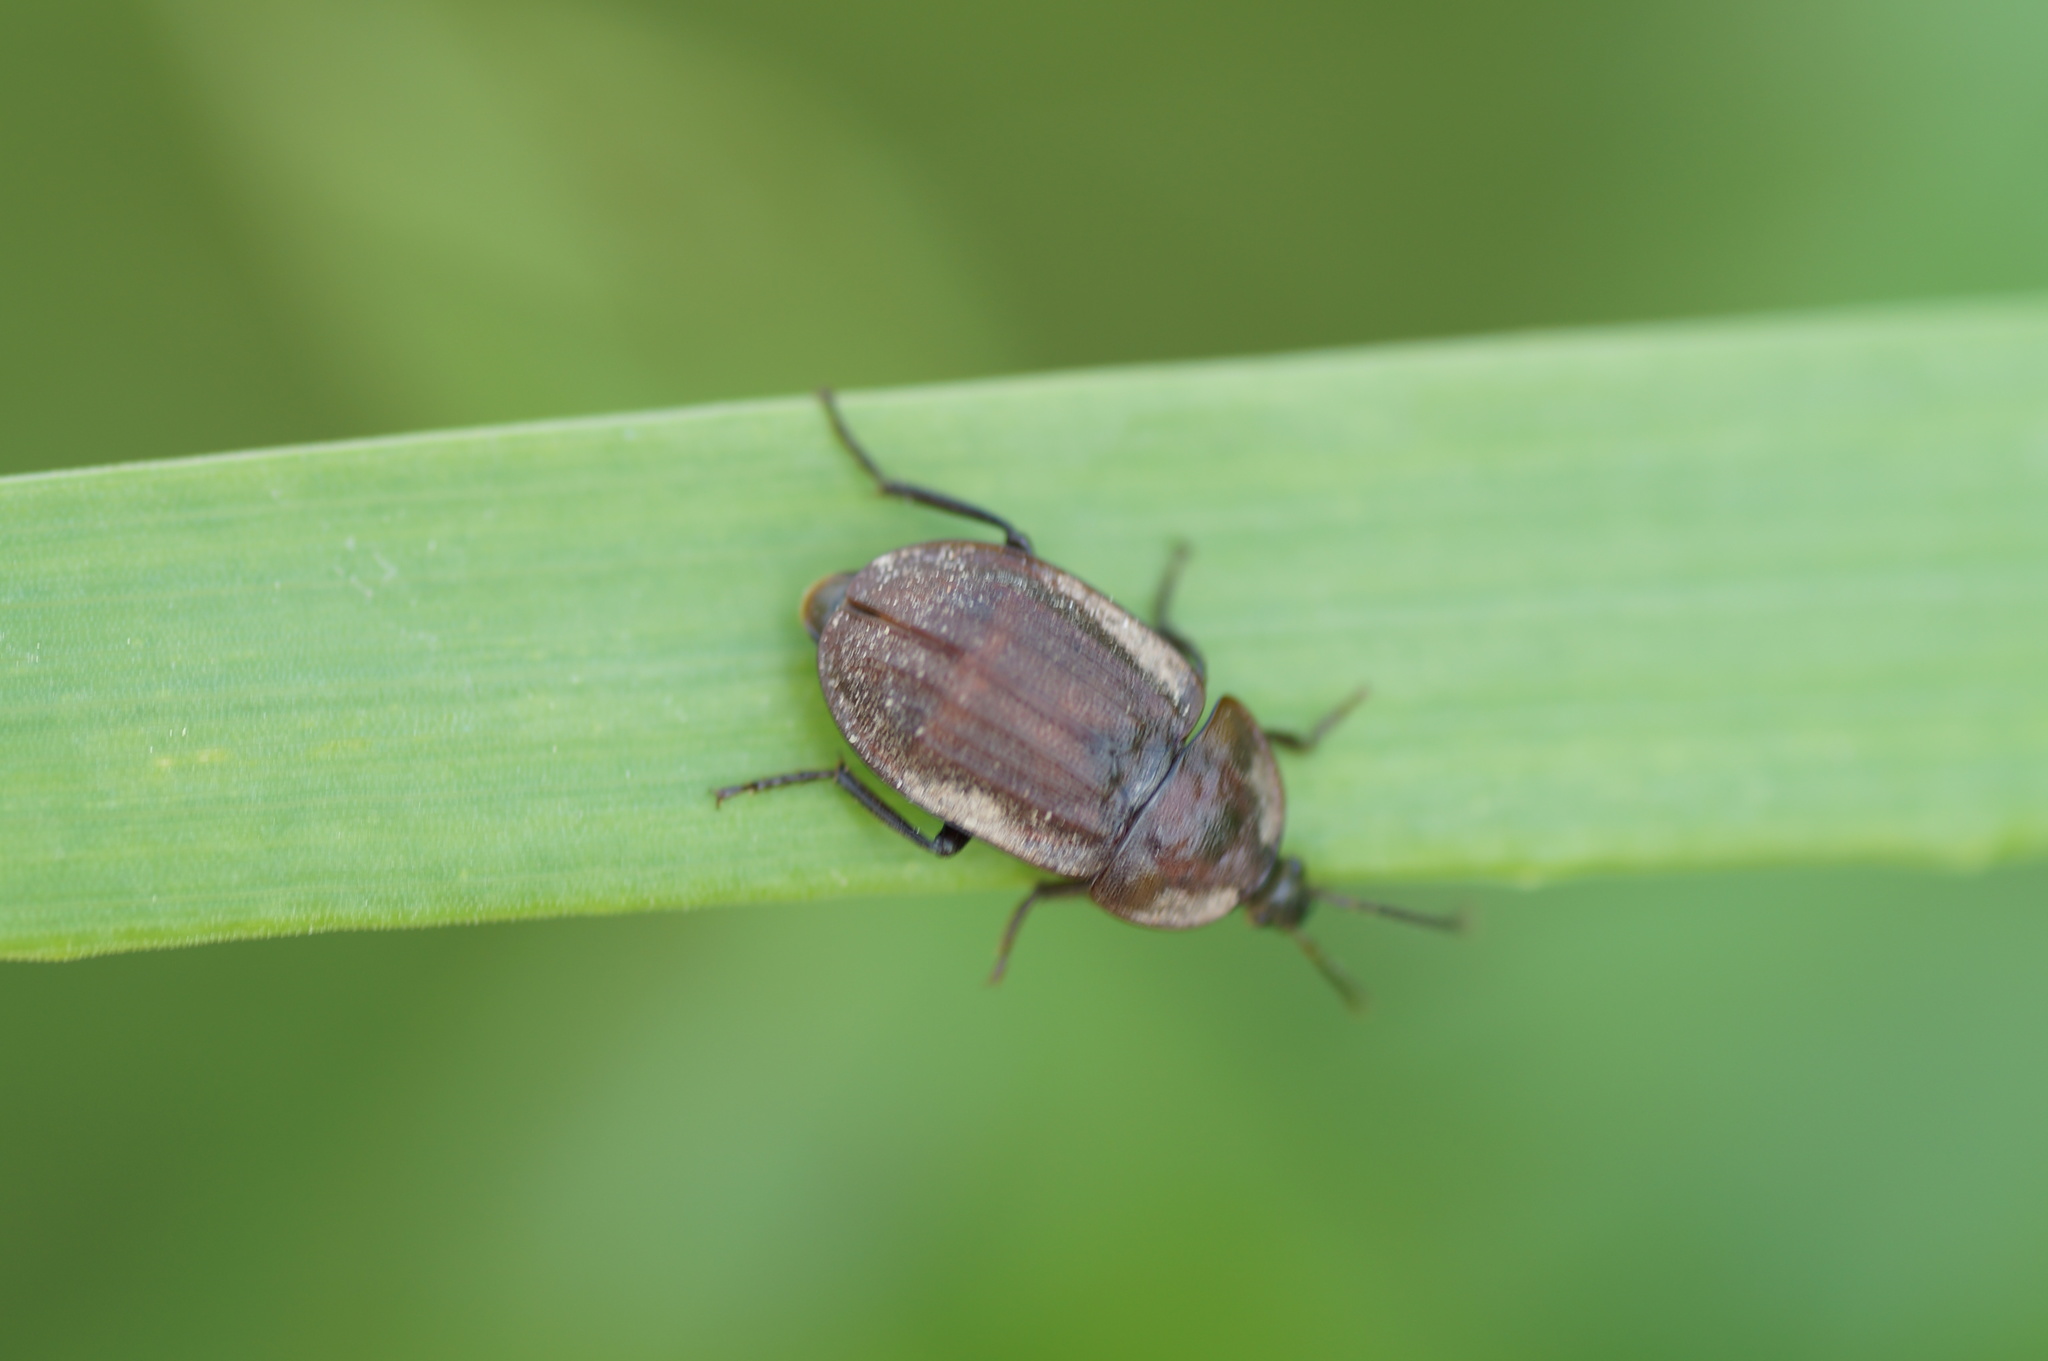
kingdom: Animalia
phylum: Arthropoda
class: Insecta
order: Coleoptera
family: Staphylinidae
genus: Silpha
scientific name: Silpha atrata
